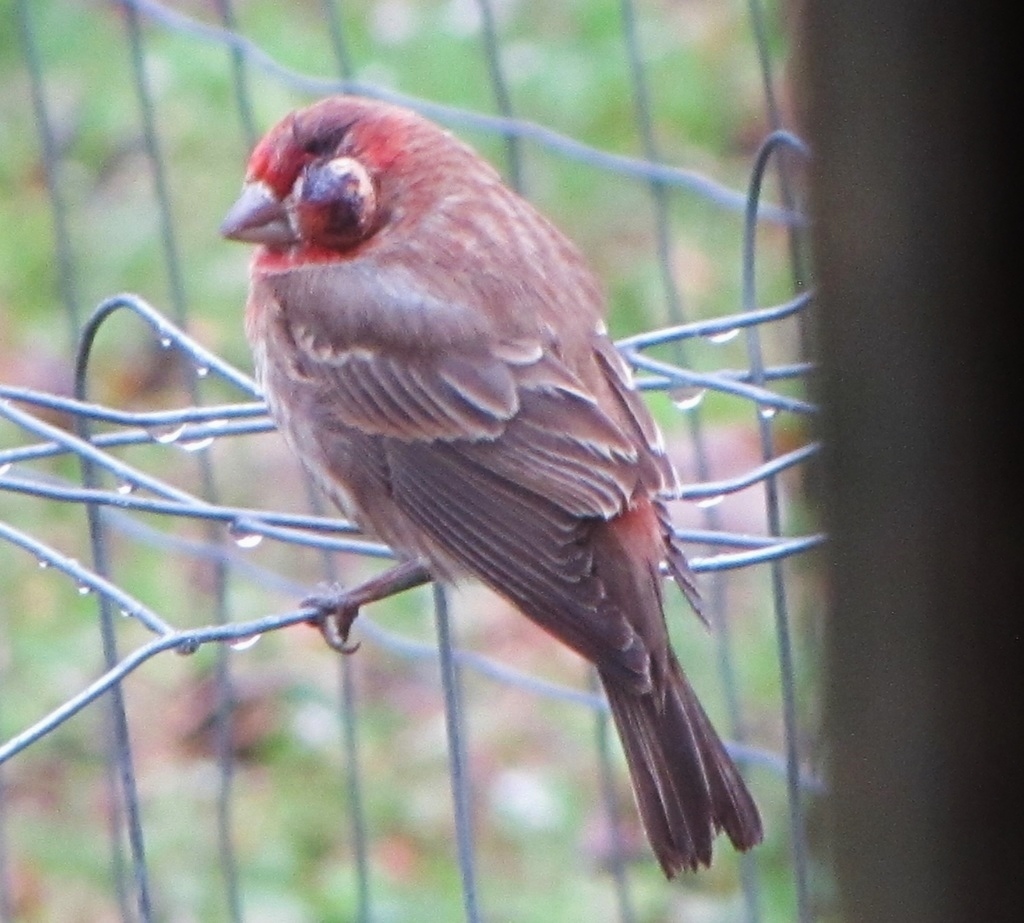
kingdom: Bacteria
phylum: Firmicutes
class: Bacilli
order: Mycoplasmatales
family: Mycoplasmataceae
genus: Mycoplasma
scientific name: Mycoplasma gallisepticum
